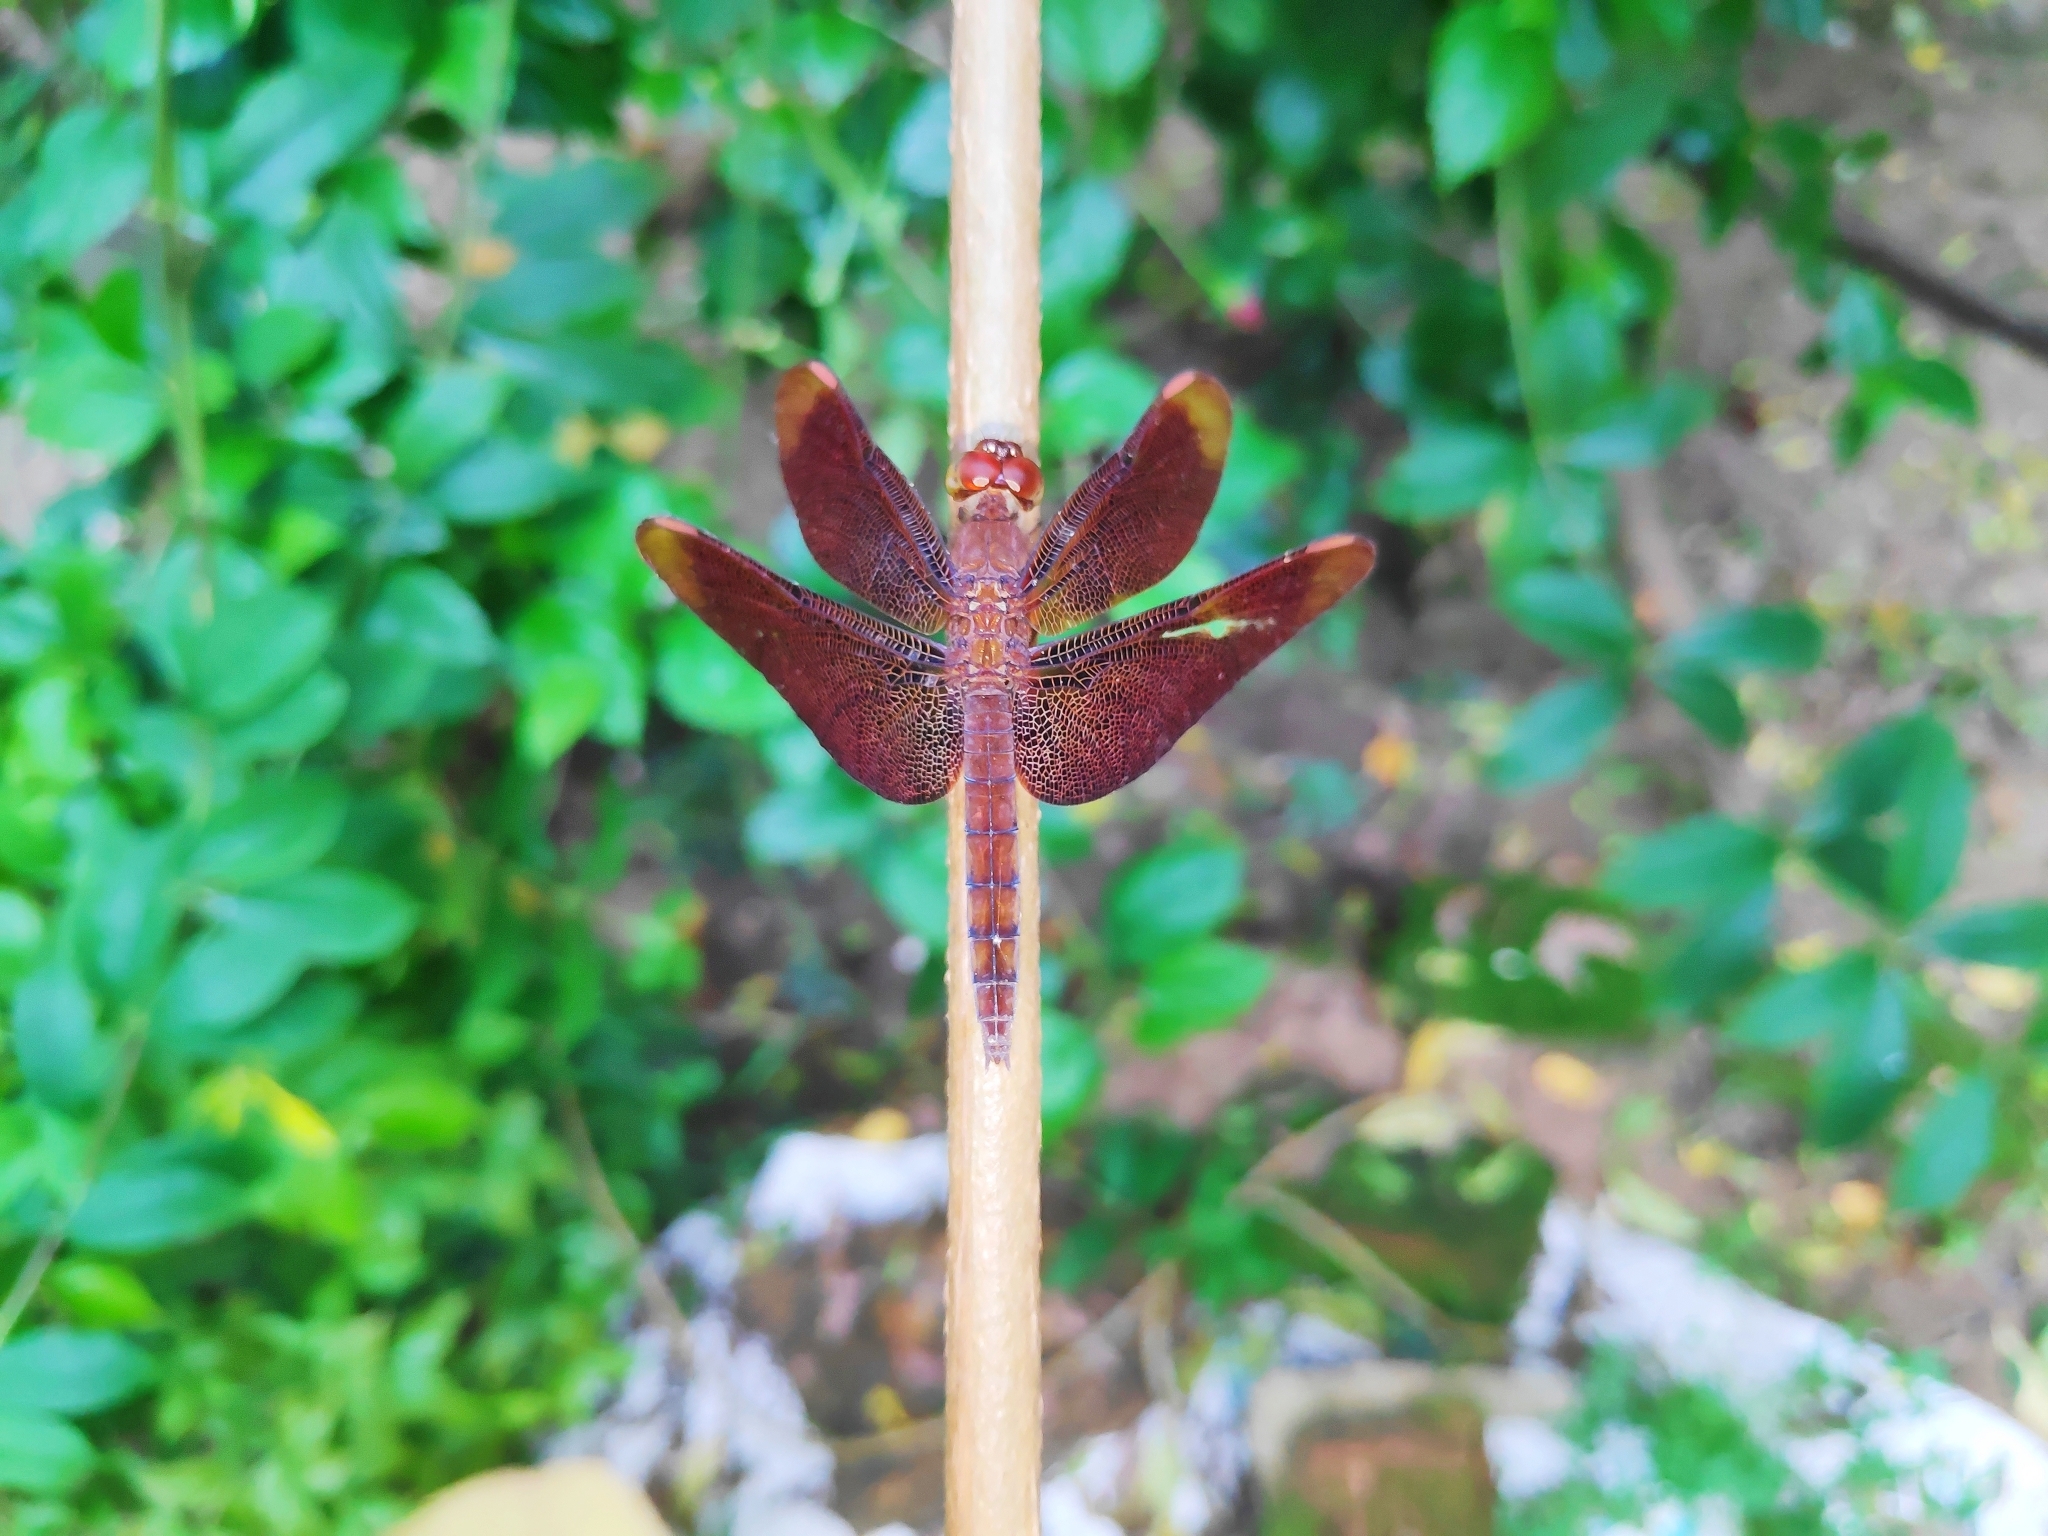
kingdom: Animalia
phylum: Arthropoda
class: Insecta
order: Odonata
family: Libellulidae
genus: Neurothemis
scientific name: Neurothemis fulvia
